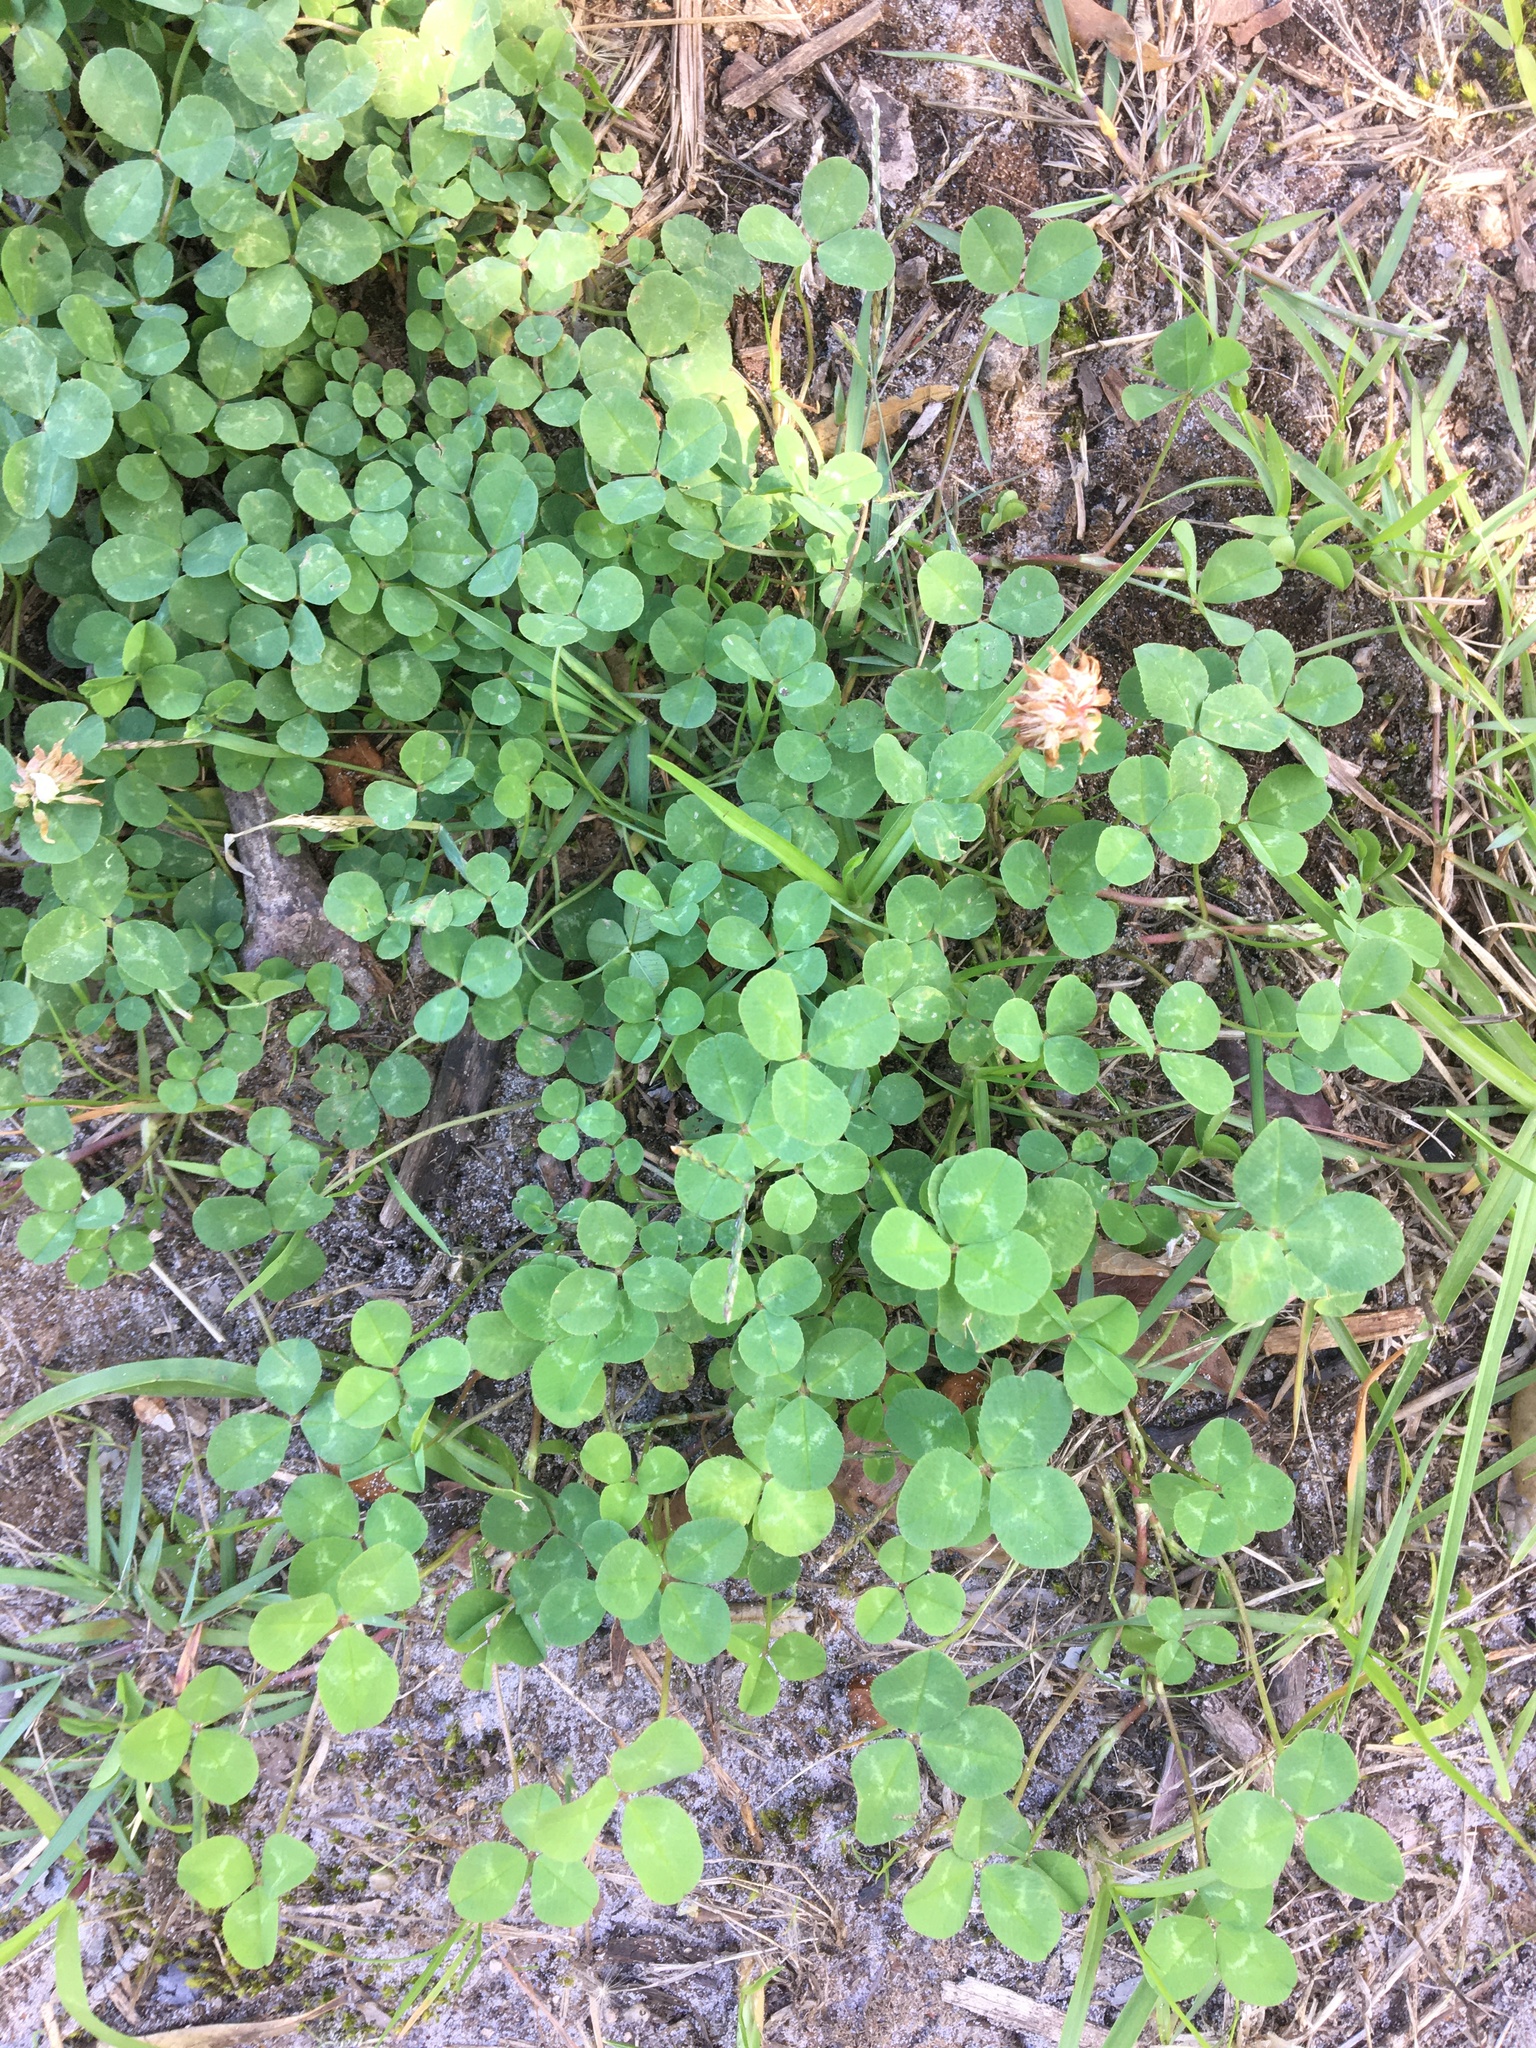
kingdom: Plantae
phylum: Tracheophyta
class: Magnoliopsida
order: Fabales
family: Fabaceae
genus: Trifolium
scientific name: Trifolium repens
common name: White clover
